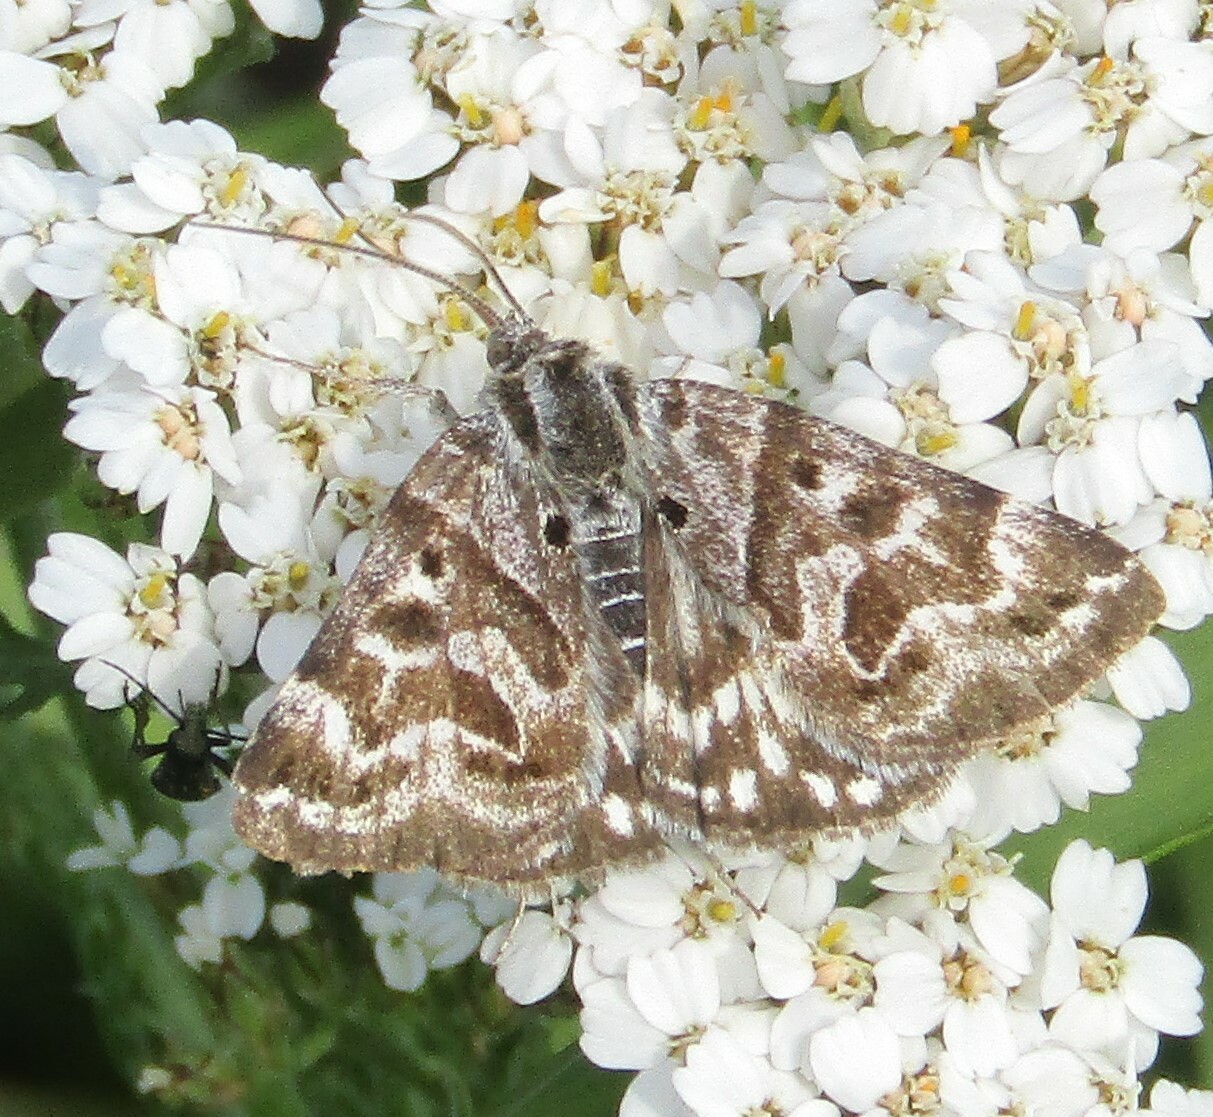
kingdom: Animalia
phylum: Arthropoda
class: Insecta
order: Lepidoptera
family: Erebidae
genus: Callistege
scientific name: Callistege mi
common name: Mother shipton
